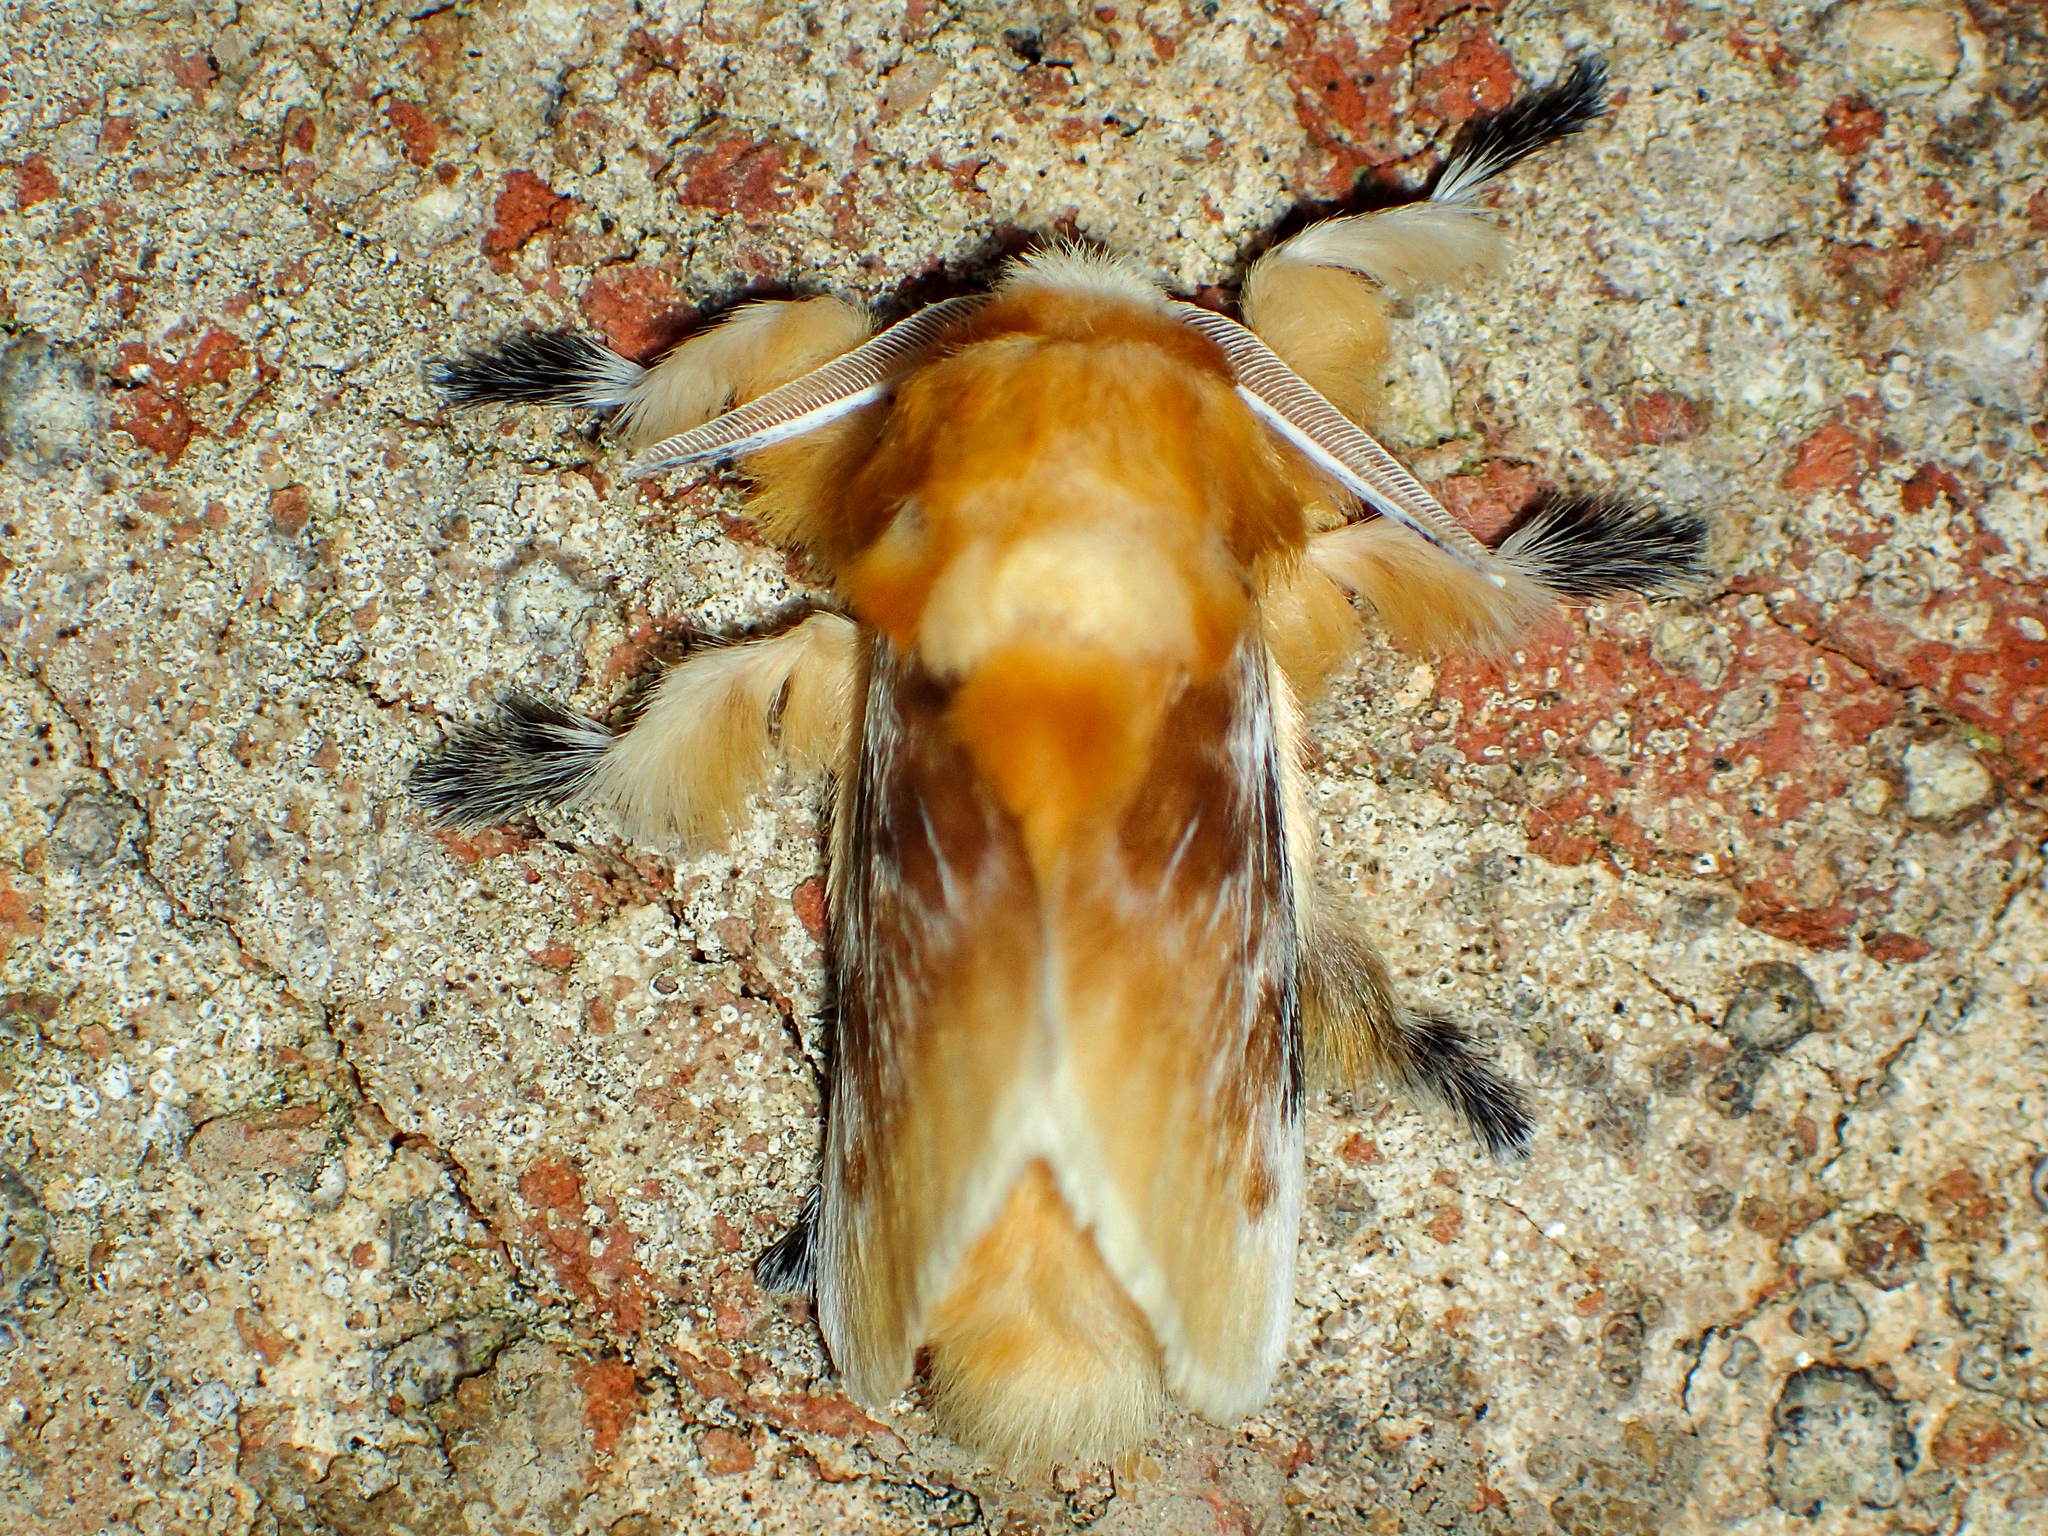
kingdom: Animalia
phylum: Arthropoda
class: Insecta
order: Lepidoptera
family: Megalopygidae
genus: Megalopyge
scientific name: Megalopyge opercularis
